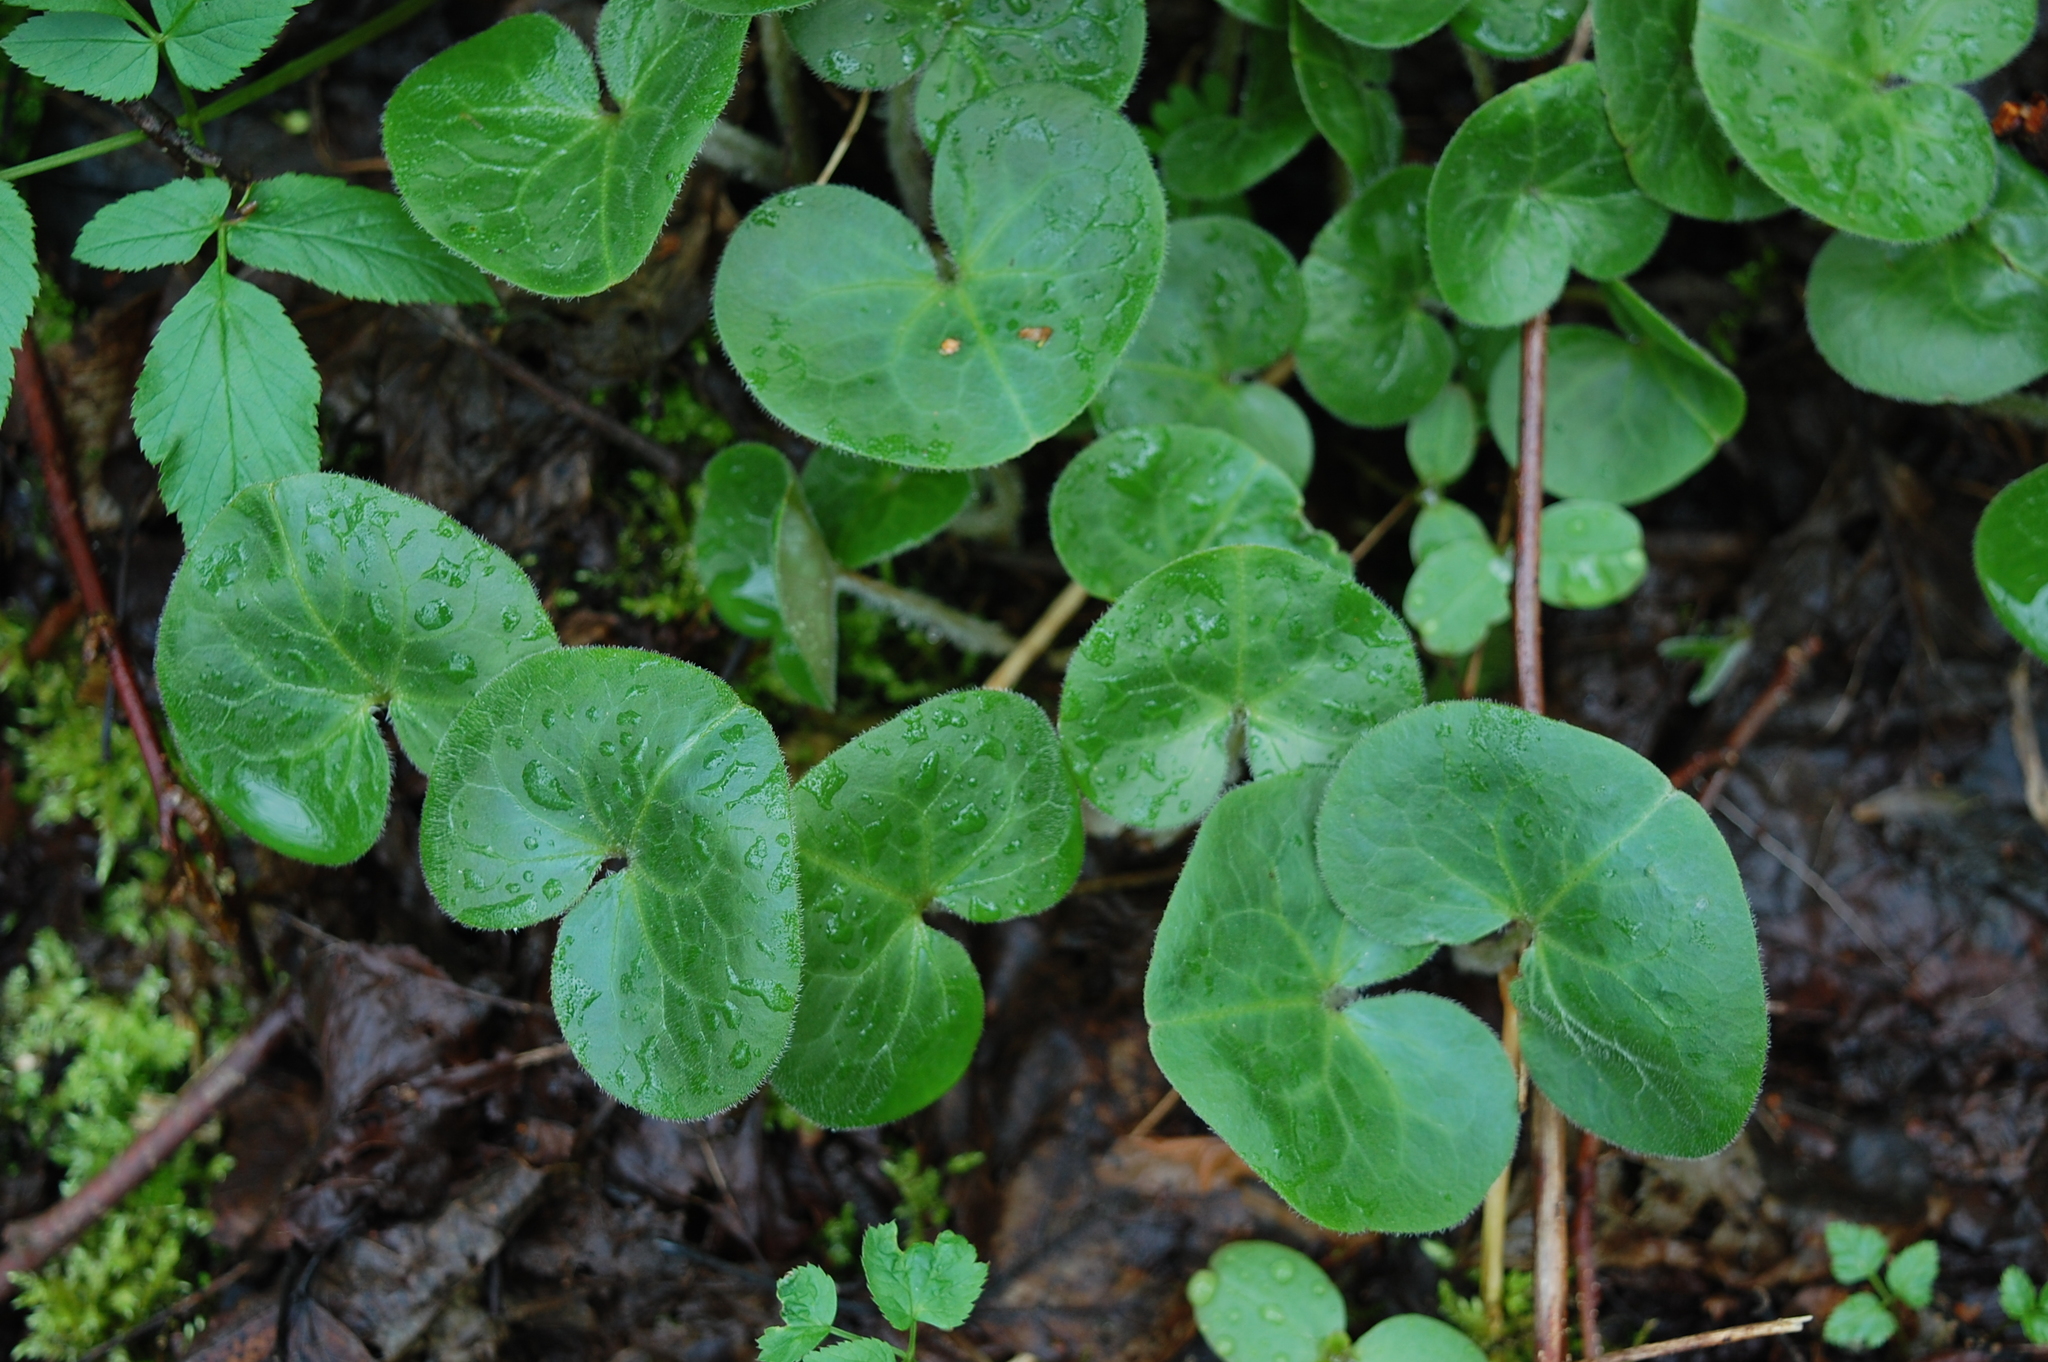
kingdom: Plantae
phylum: Tracheophyta
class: Magnoliopsida
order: Piperales
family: Aristolochiaceae
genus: Asarum
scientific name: Asarum europaeum
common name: Asarabacca
